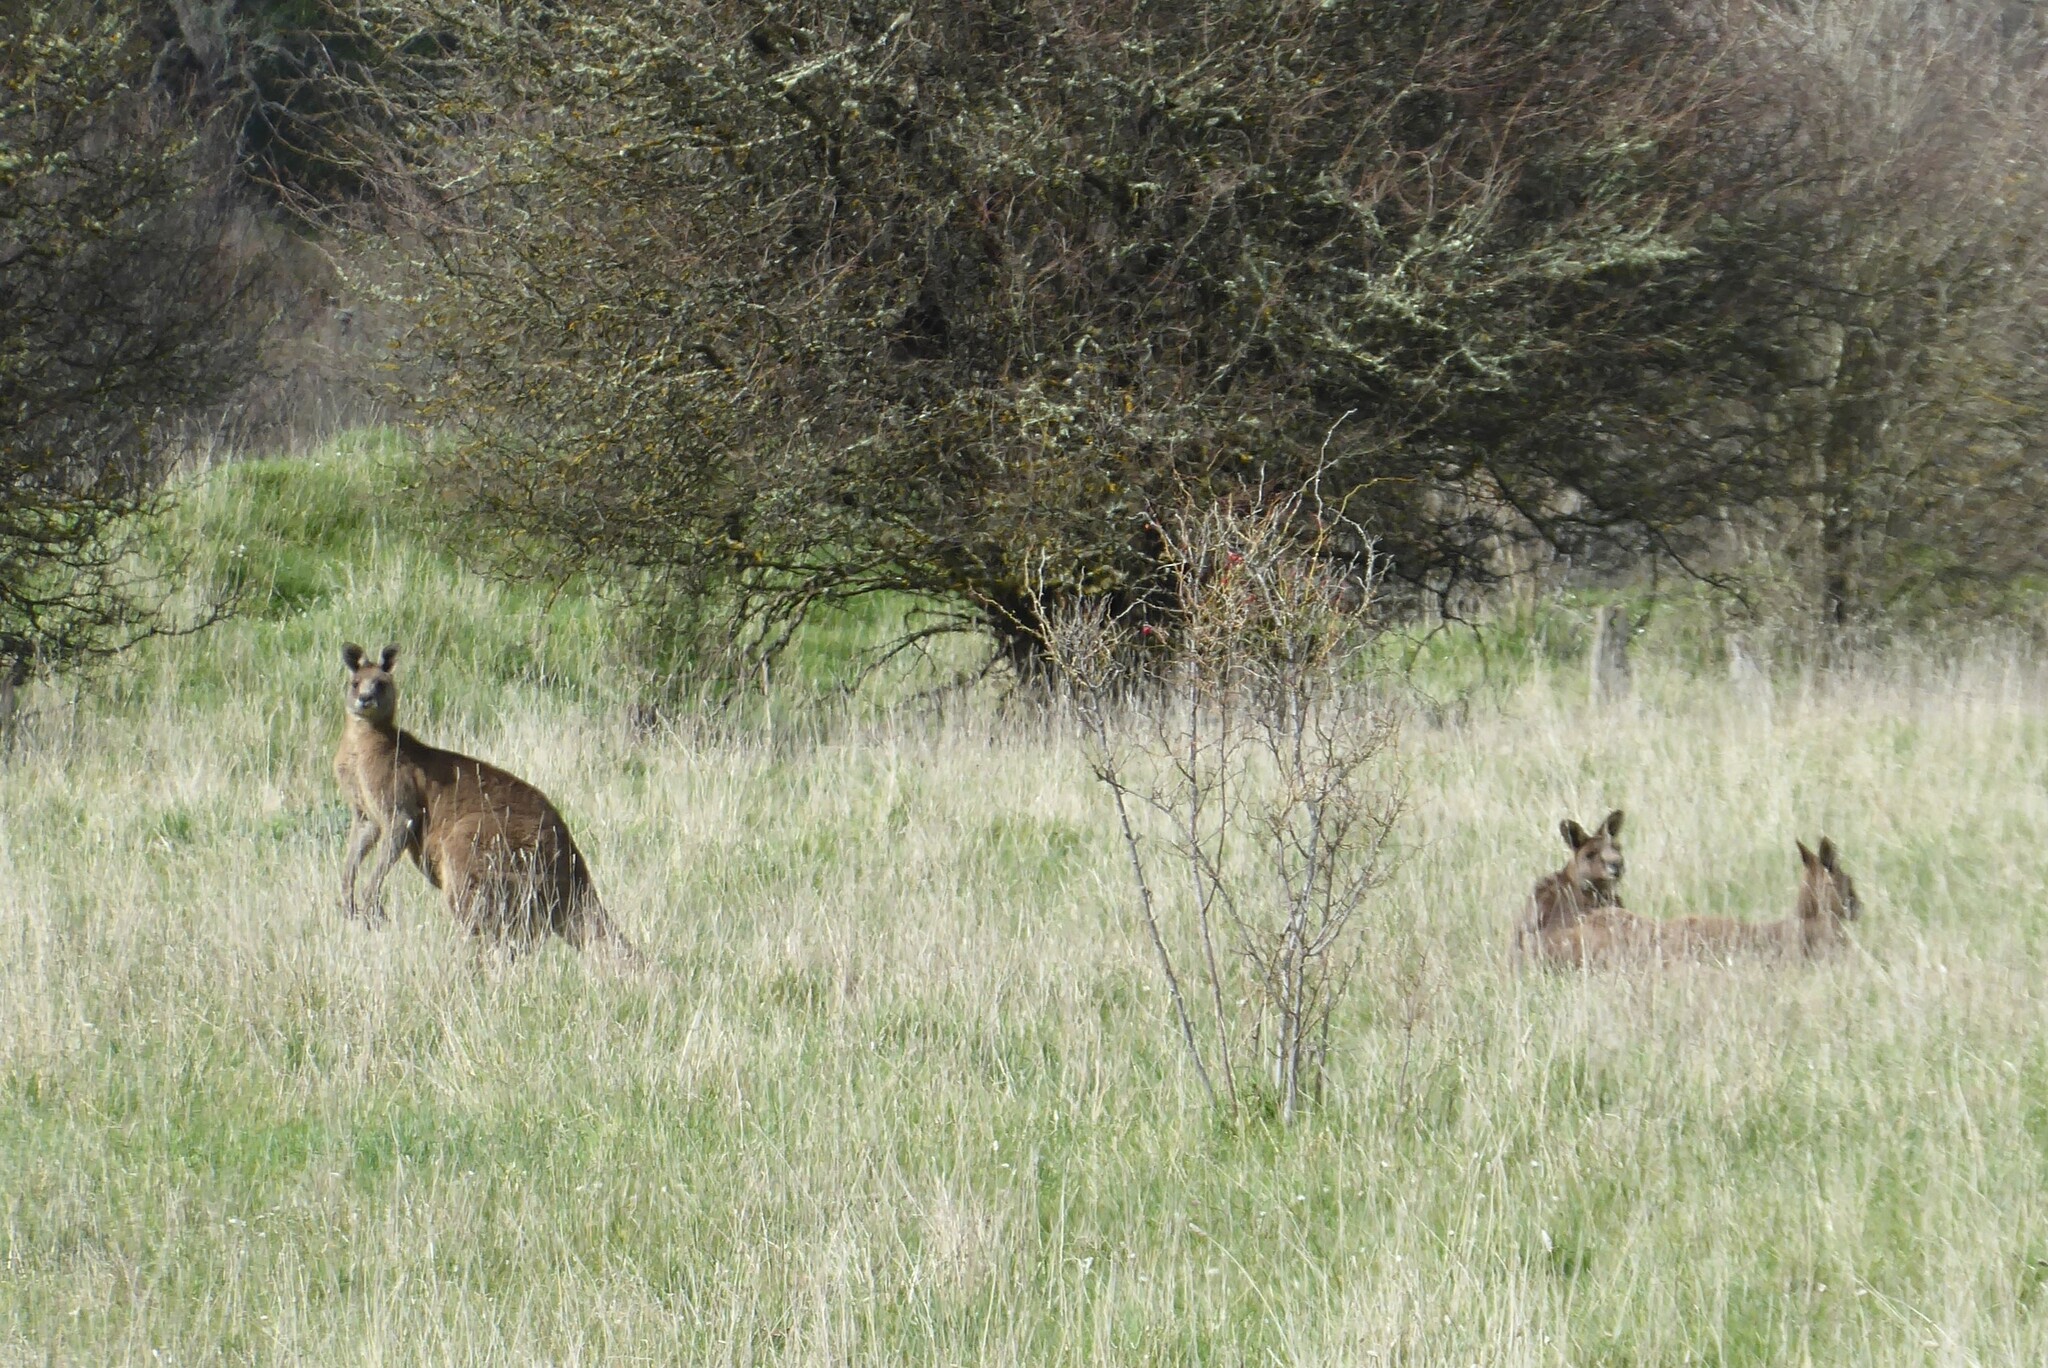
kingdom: Animalia
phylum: Chordata
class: Mammalia
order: Diprotodontia
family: Macropodidae
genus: Macropus
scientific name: Macropus giganteus
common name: Eastern grey kangaroo
